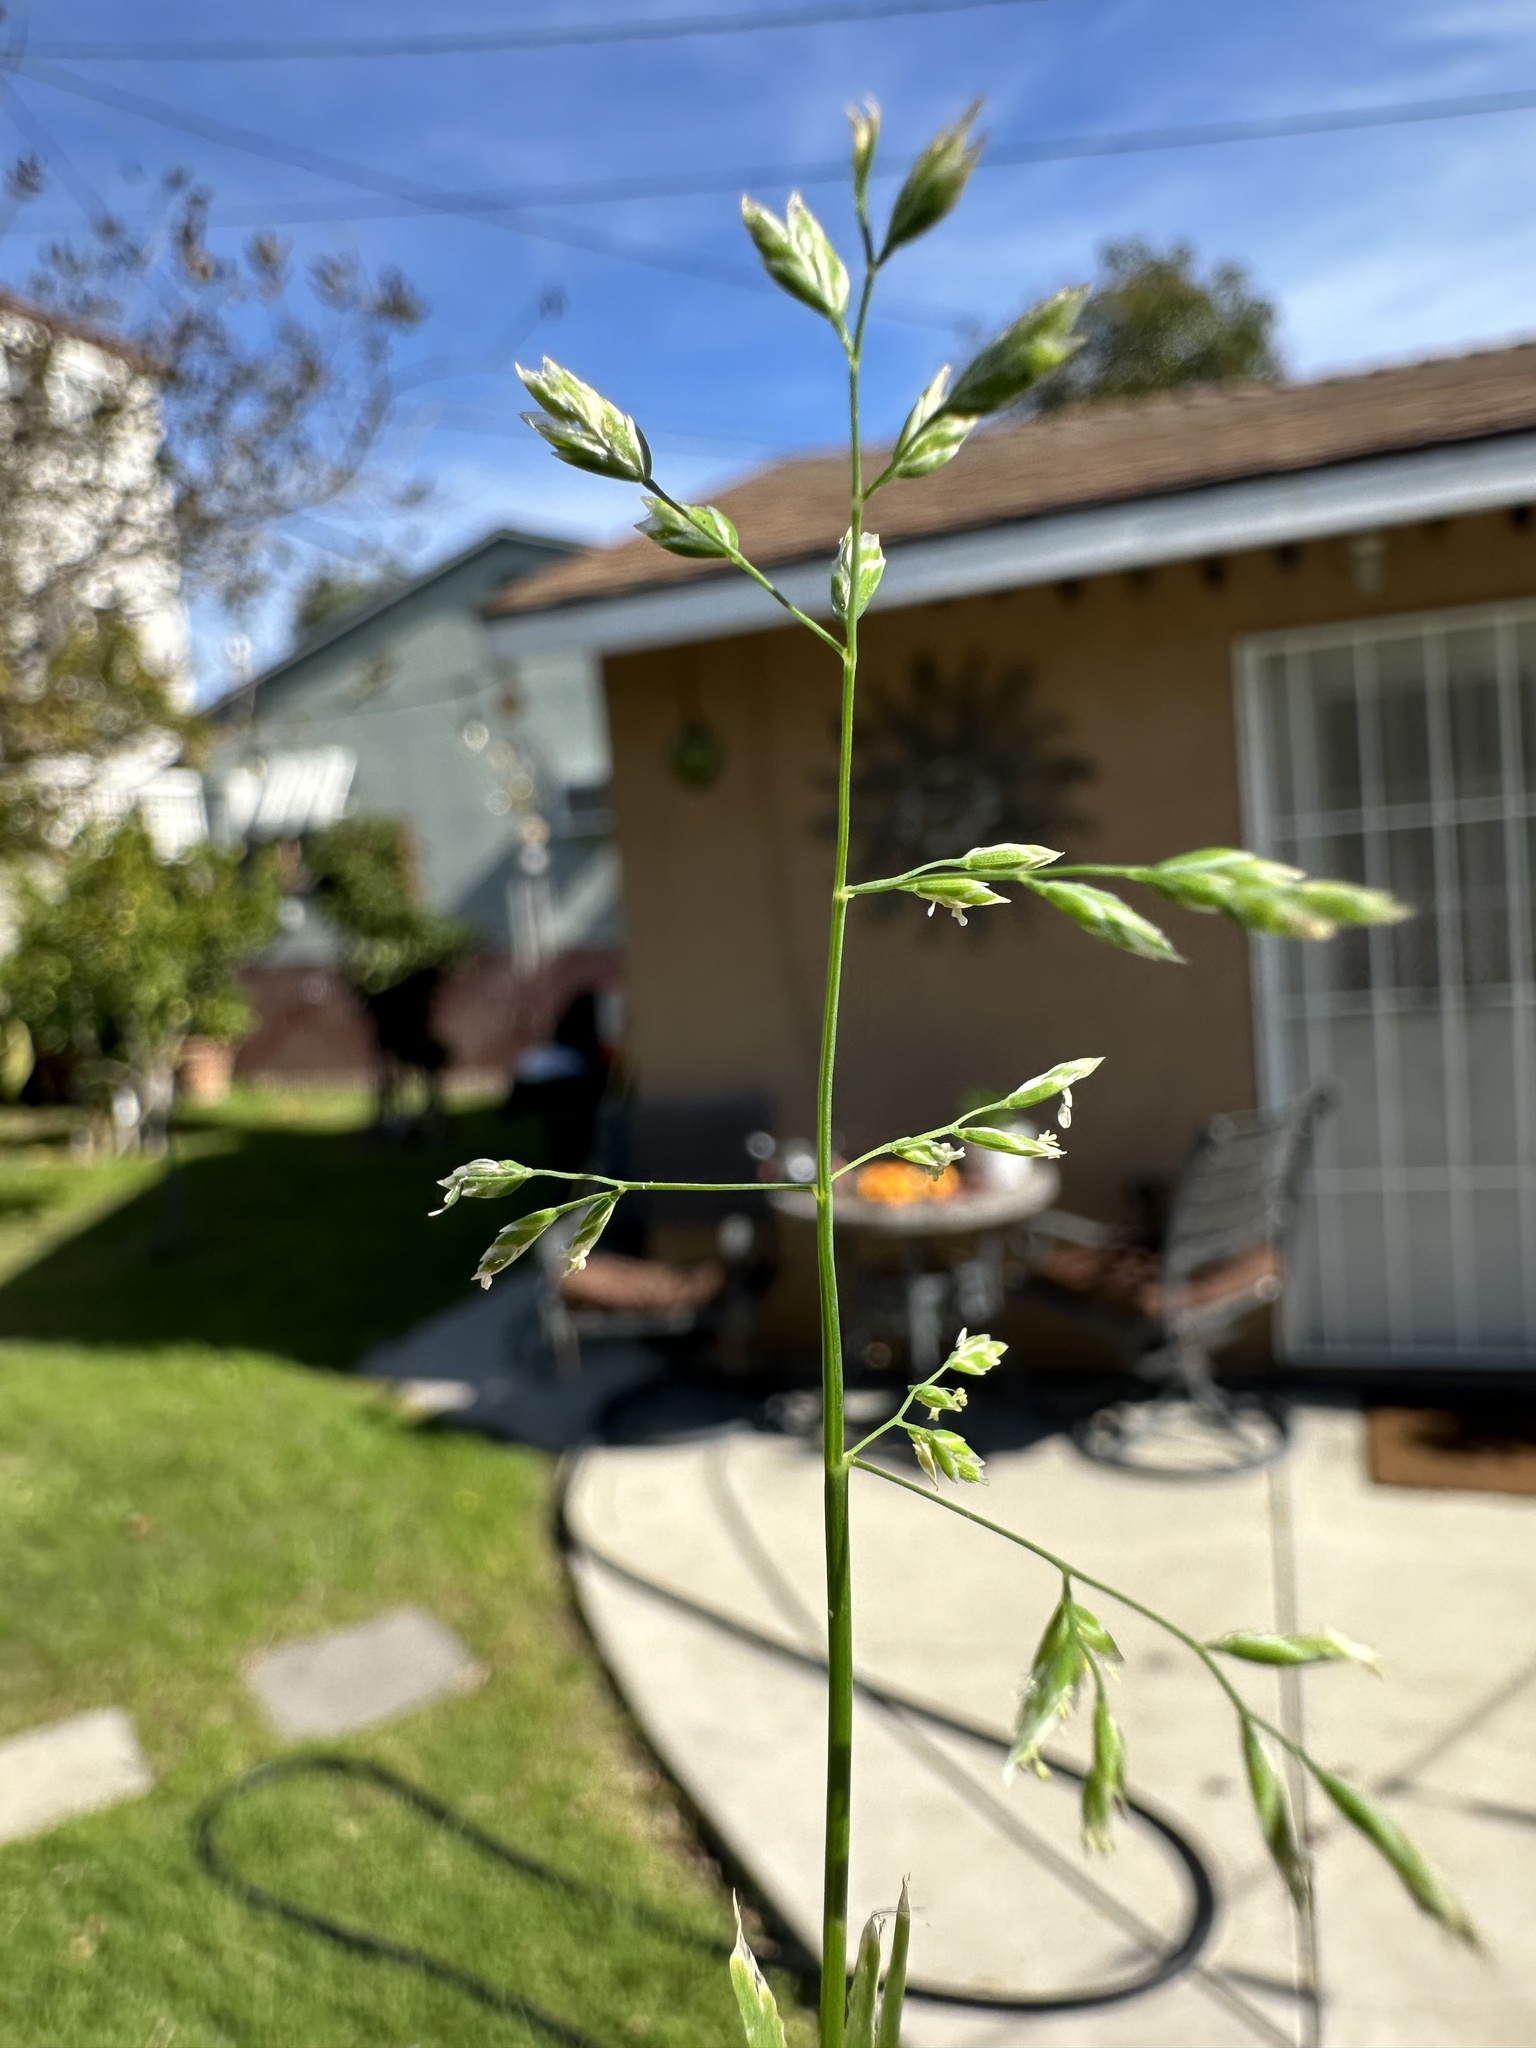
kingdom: Plantae
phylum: Tracheophyta
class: Liliopsida
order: Poales
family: Poaceae
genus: Poa
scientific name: Poa annua
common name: Annual bluegrass
